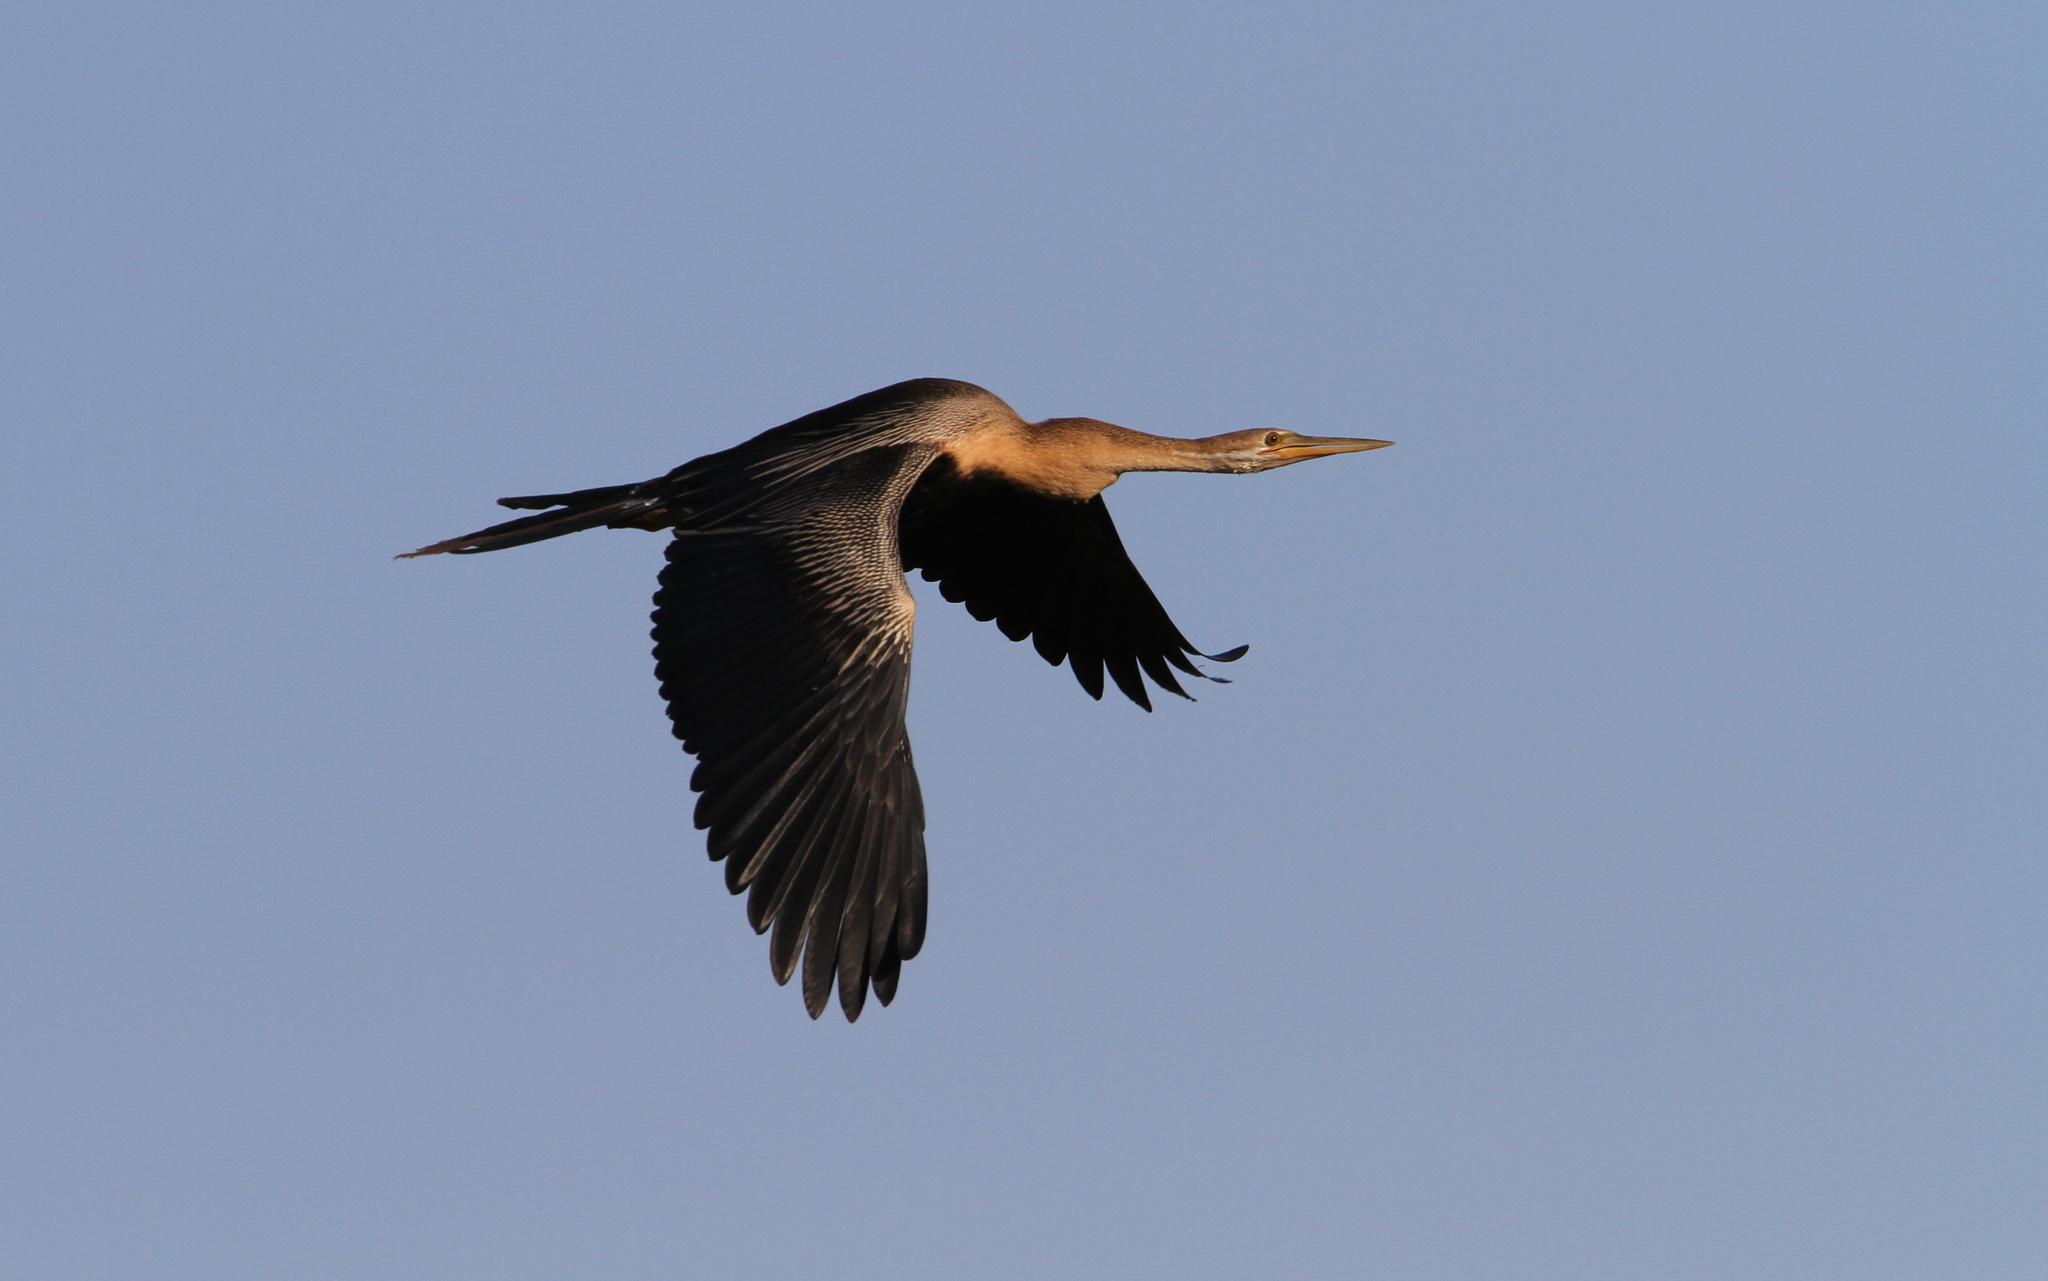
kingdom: Animalia
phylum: Chordata
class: Aves
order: Suliformes
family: Anhingidae
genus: Anhinga
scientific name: Anhinga rufa
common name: African darter
